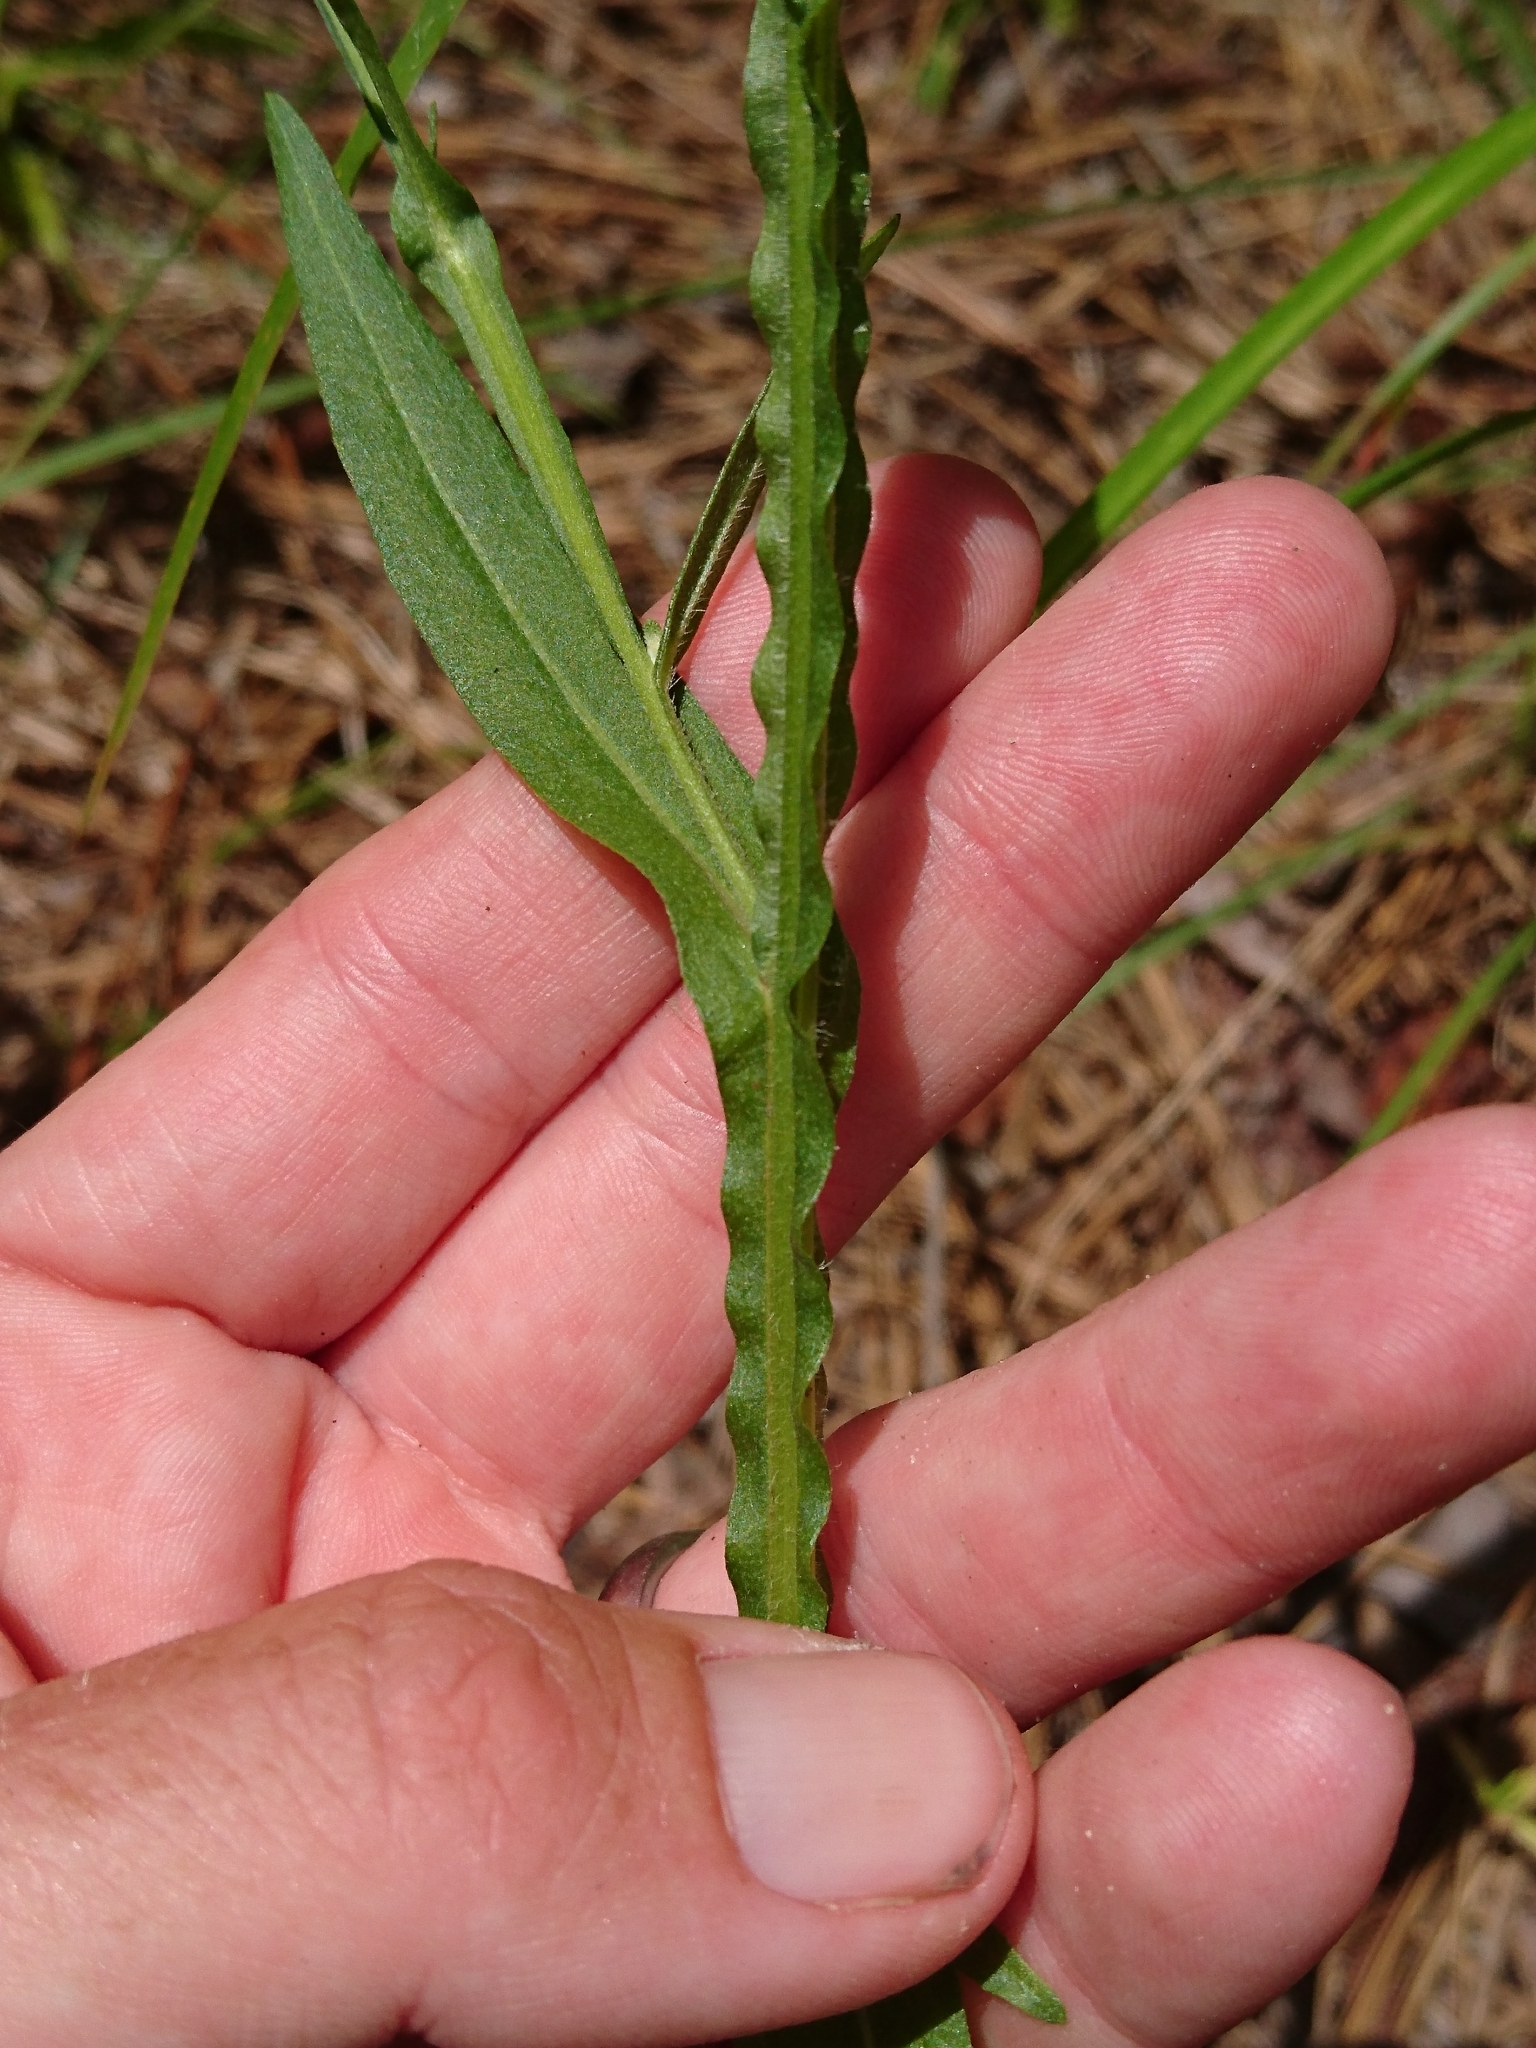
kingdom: Plantae
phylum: Tracheophyta
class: Magnoliopsida
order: Asterales
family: Asteraceae
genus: Helenium
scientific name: Helenium flexuosum
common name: Naked-flowered sneezeweed
